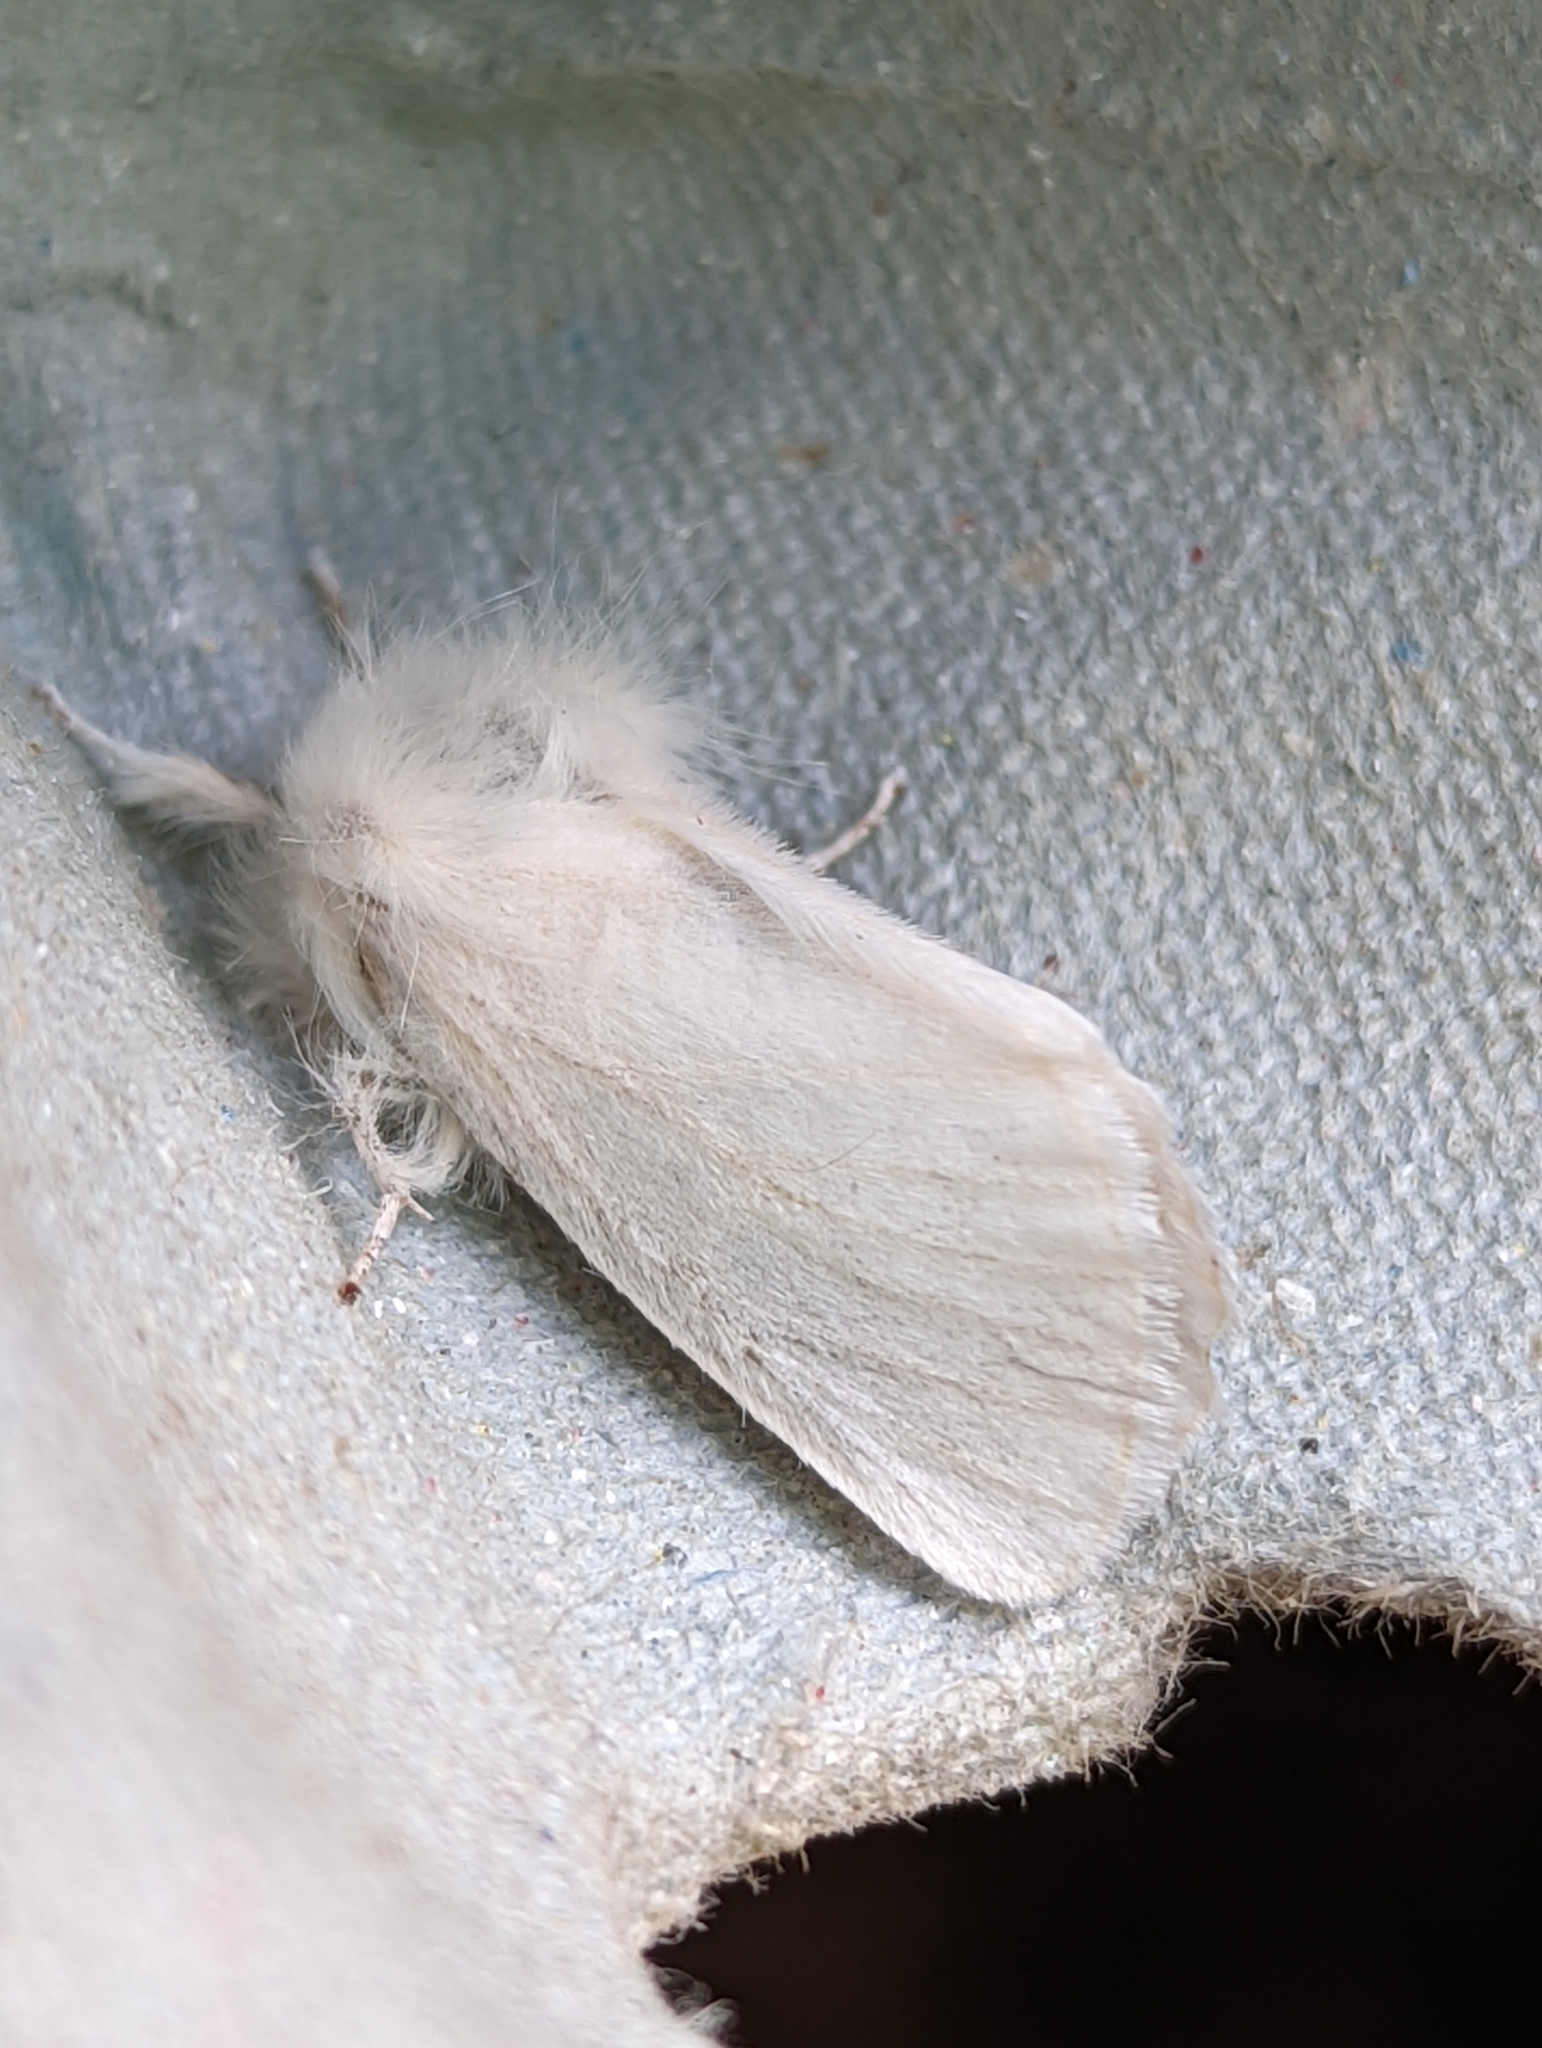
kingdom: Animalia
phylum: Arthropoda
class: Insecta
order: Lepidoptera
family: Erebidae
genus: Euproctis
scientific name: Euproctis chrysorrhoea
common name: Brown-tail
